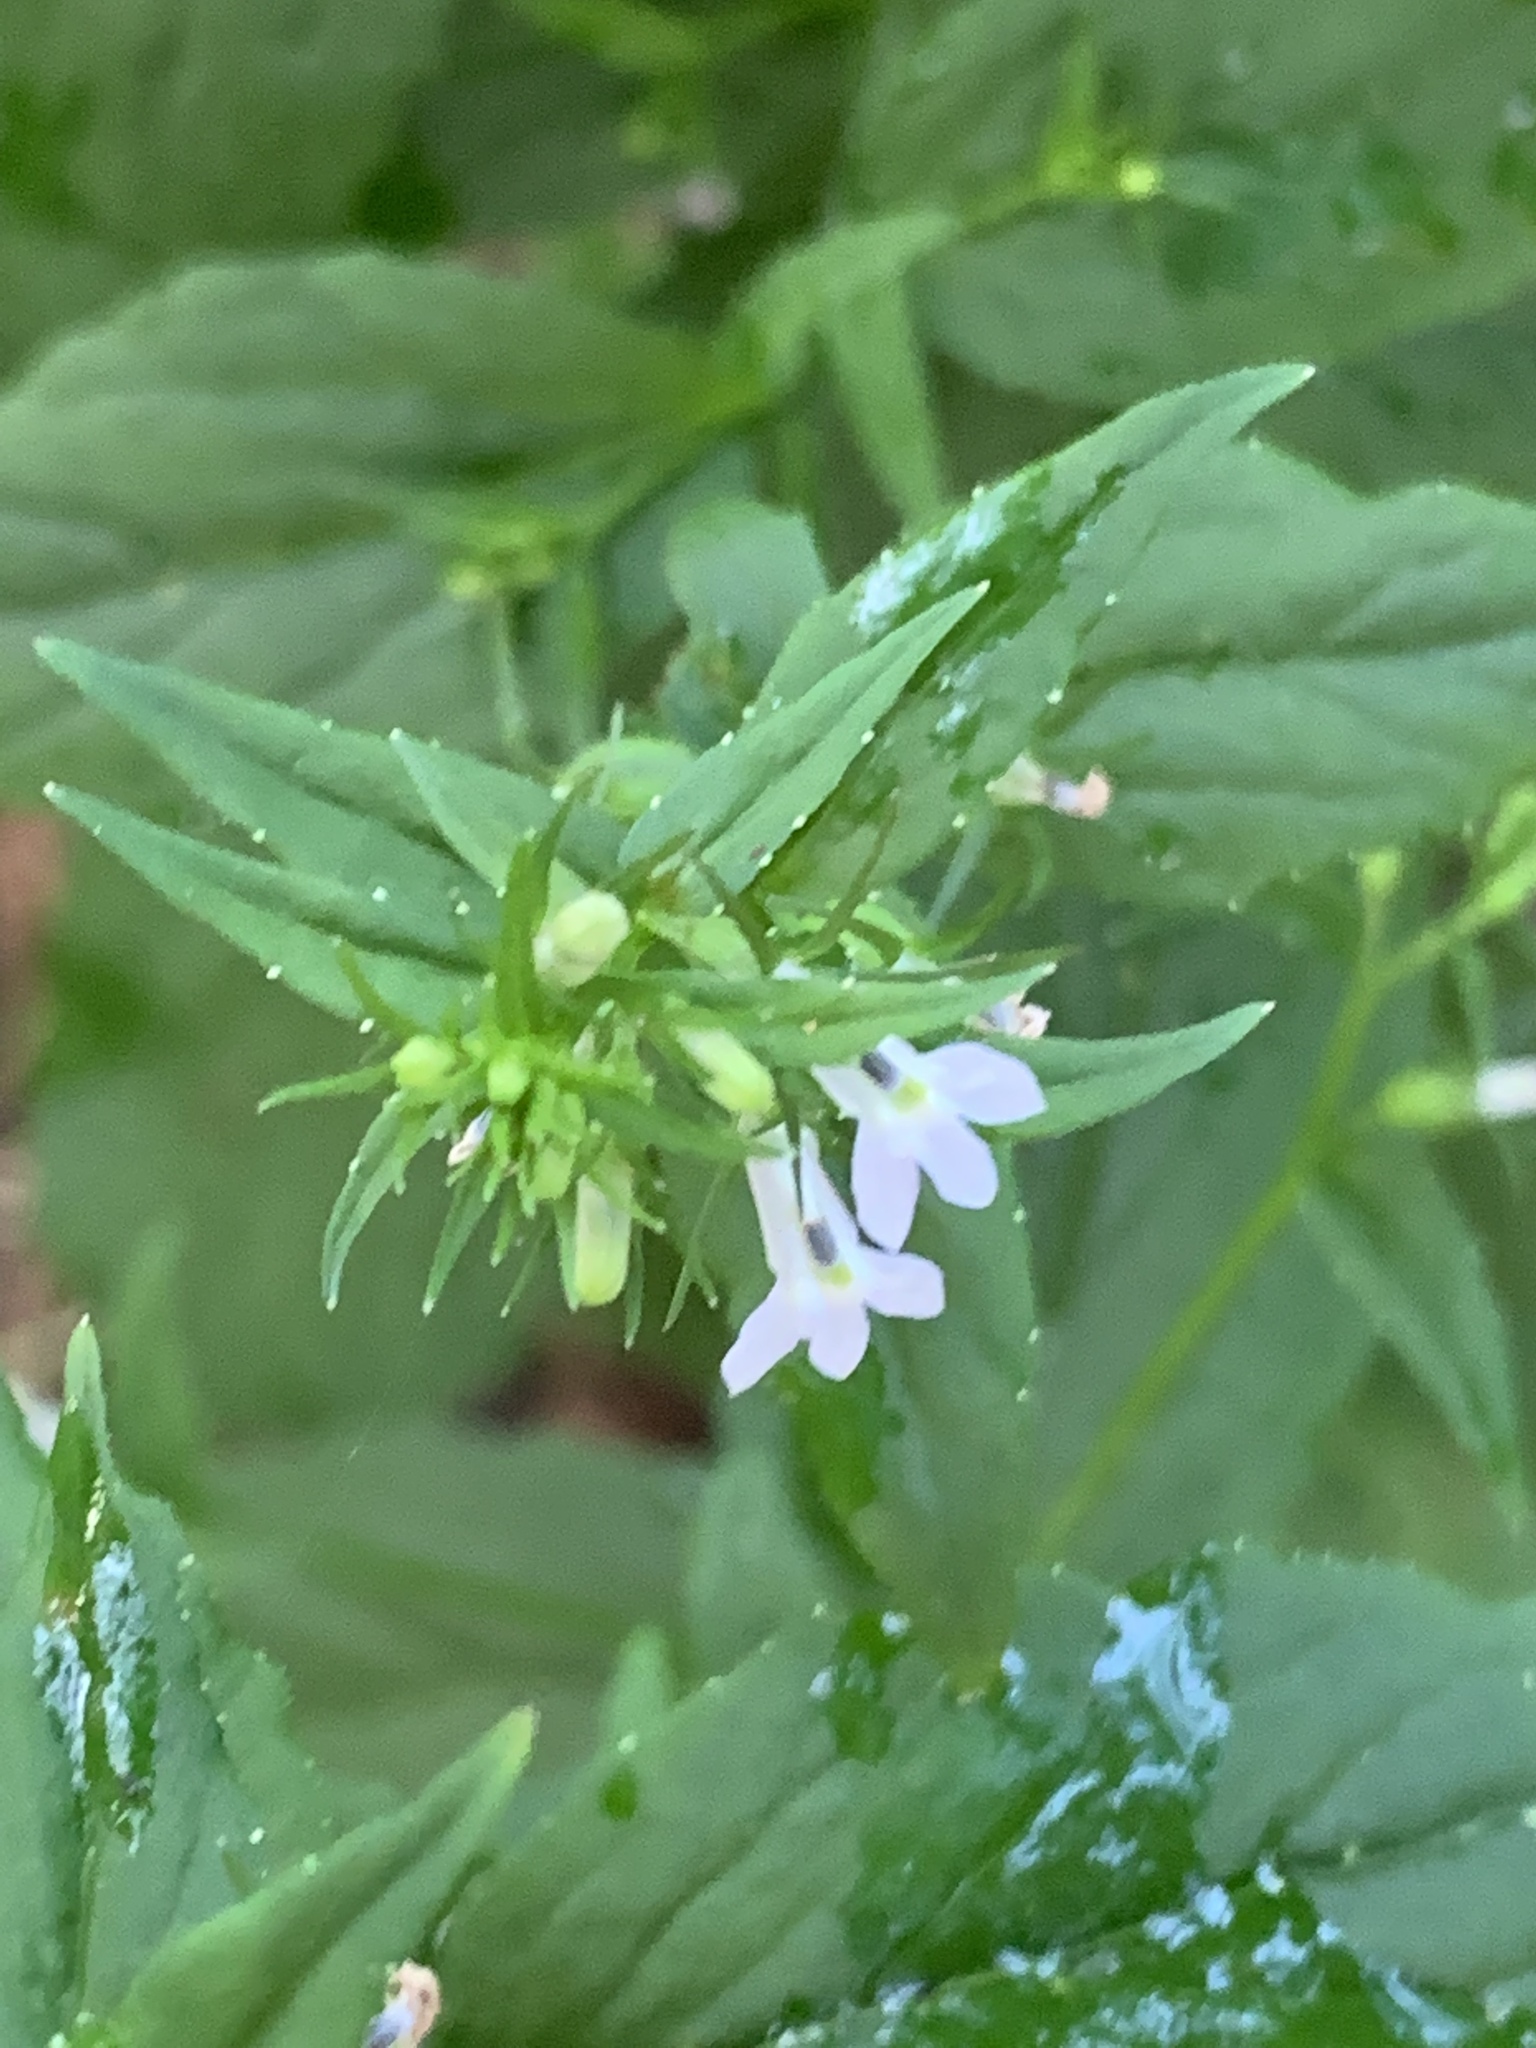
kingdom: Plantae
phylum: Tracheophyta
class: Magnoliopsida
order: Asterales
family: Campanulaceae
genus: Lobelia
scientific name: Lobelia inflata
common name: Indian tobacco
